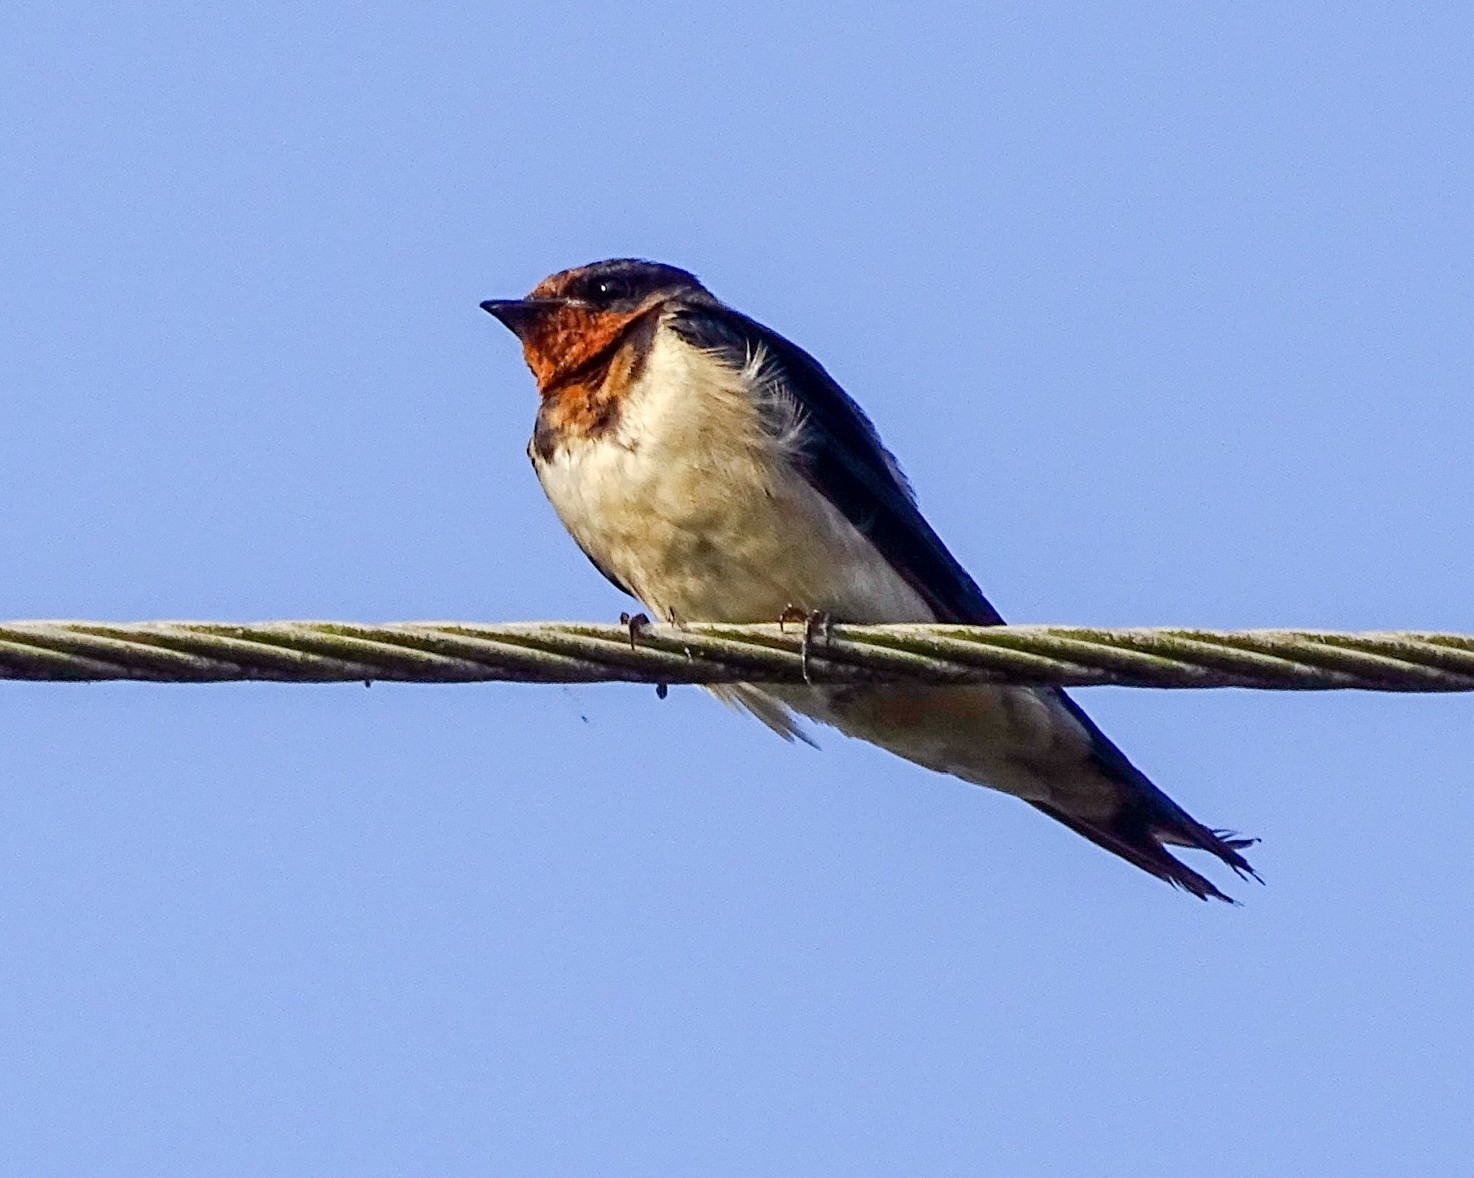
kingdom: Animalia
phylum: Chordata
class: Aves
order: Passeriformes
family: Hirundinidae
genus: Hirundo
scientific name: Hirundo rustica
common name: Barn swallow
